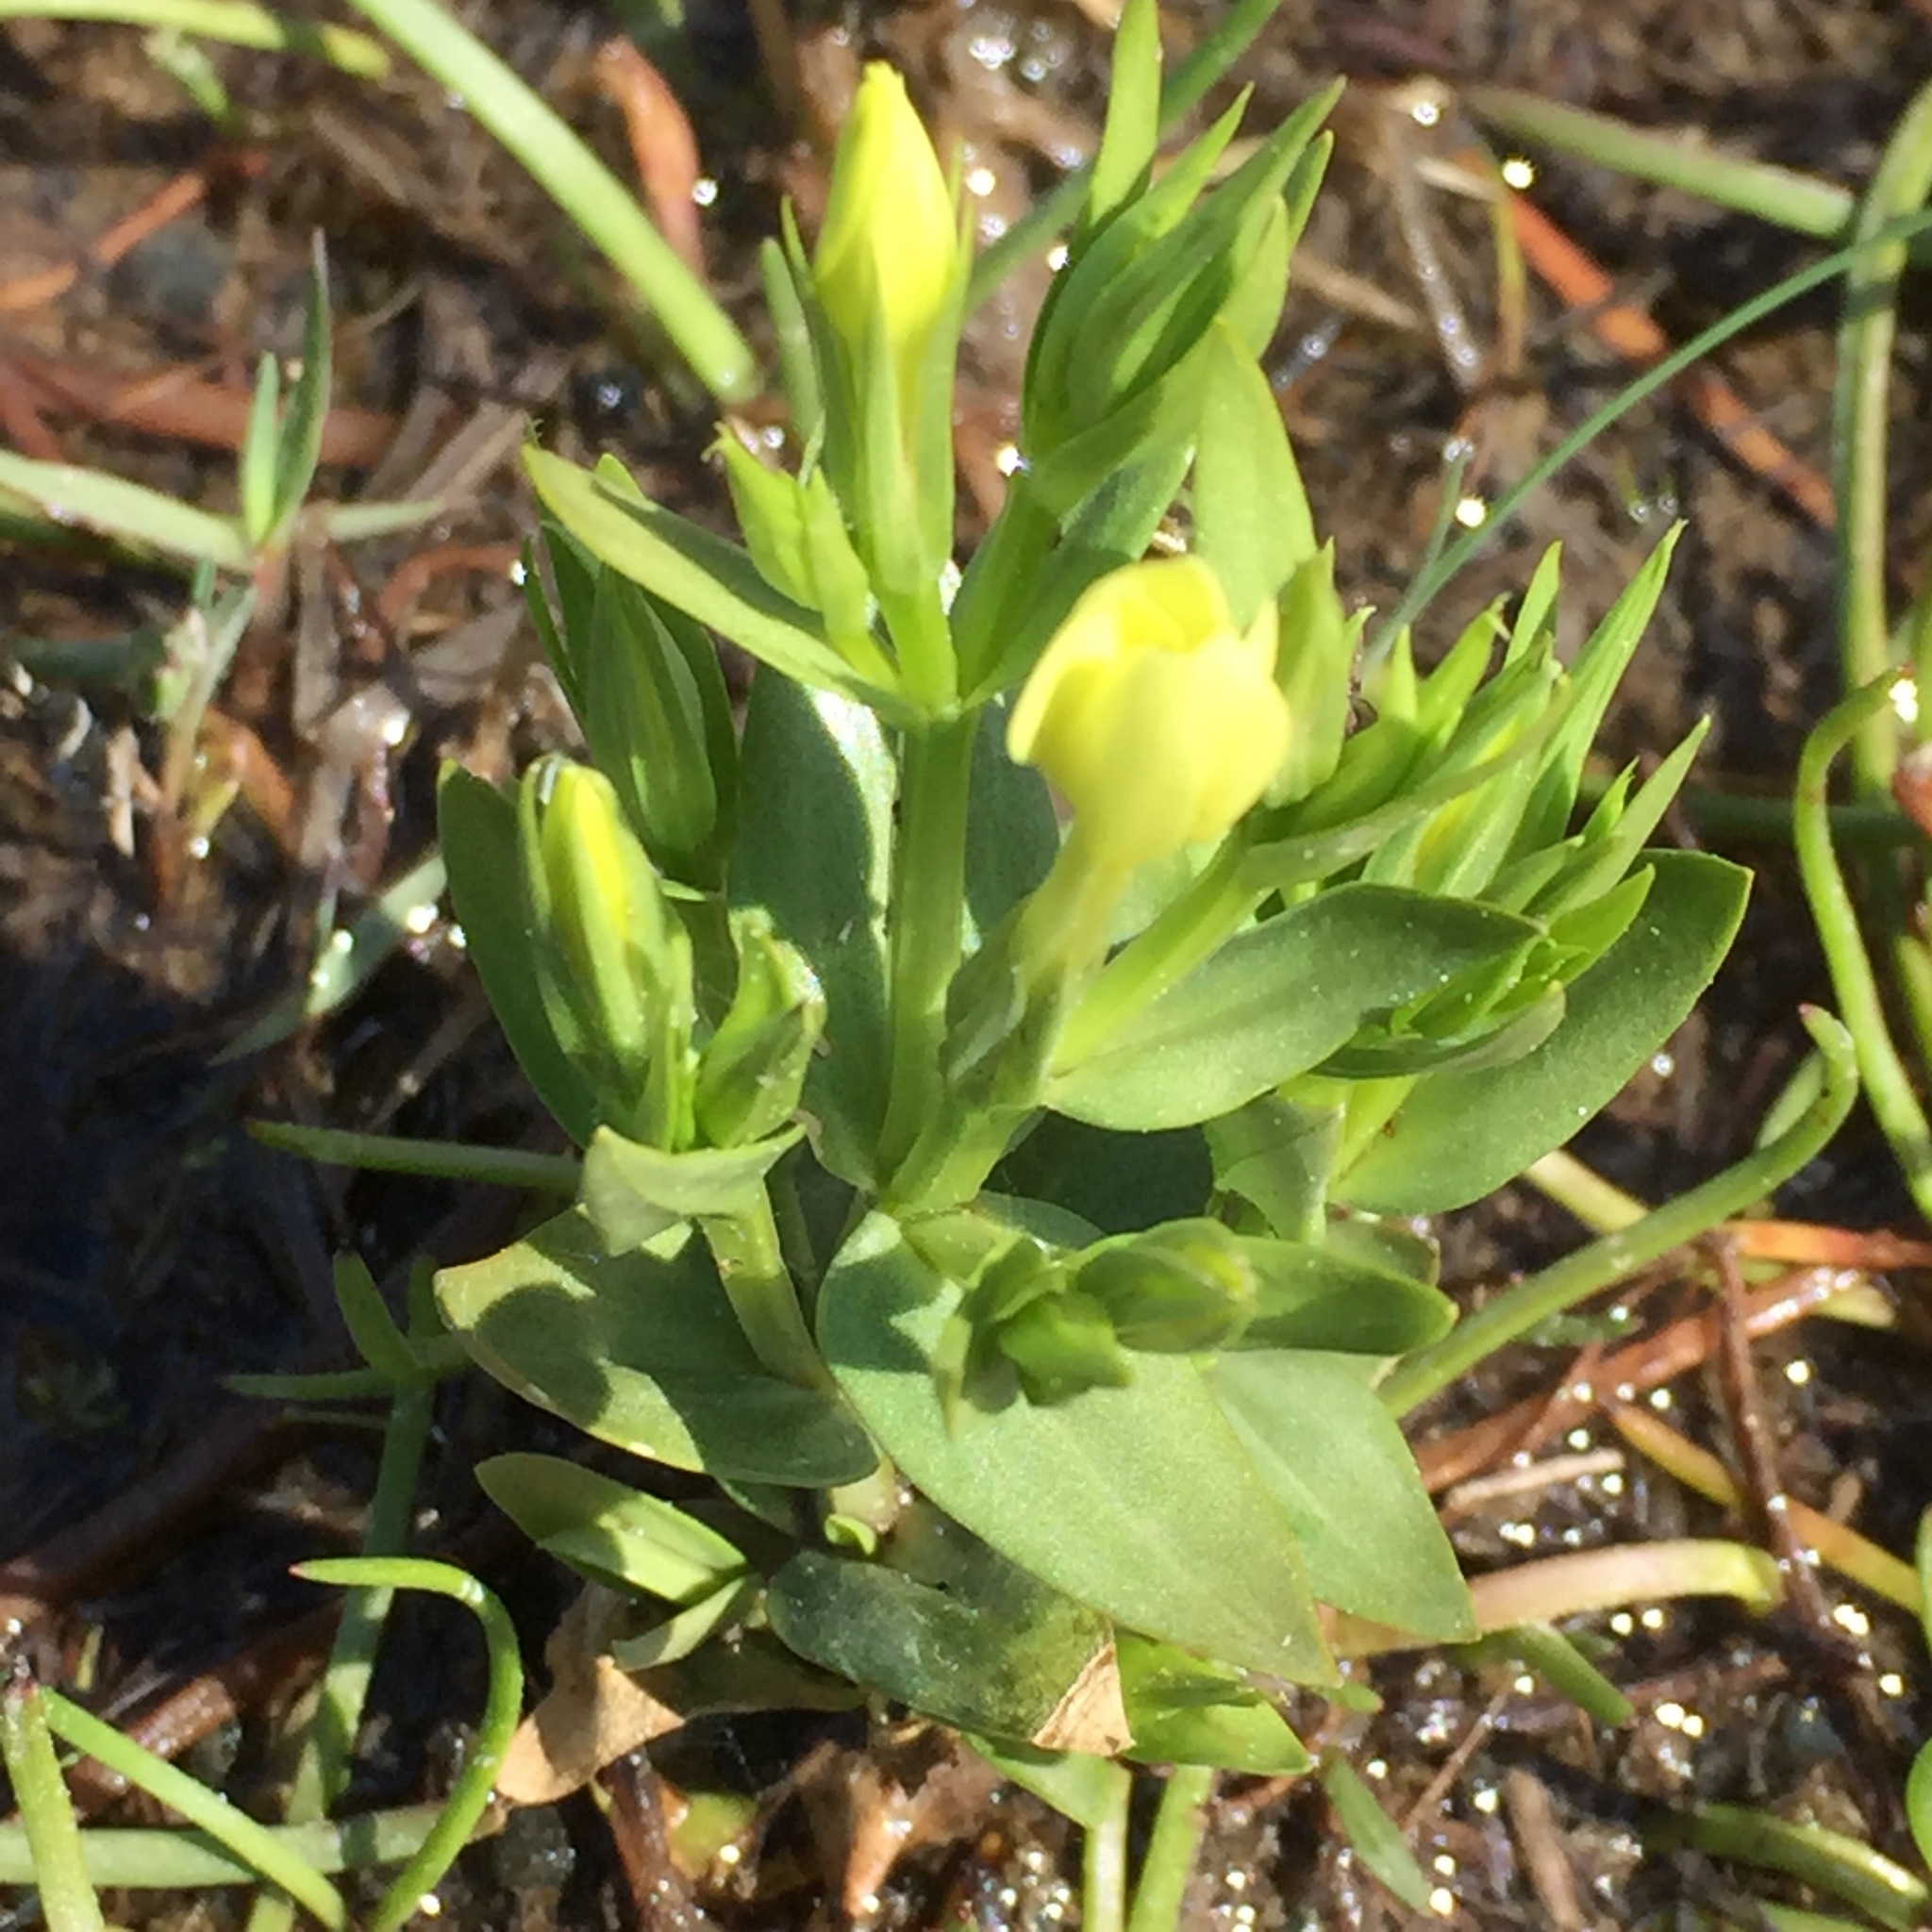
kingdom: Plantae
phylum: Tracheophyta
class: Magnoliopsida
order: Gentianales
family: Gentianaceae
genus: Centaurium
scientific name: Centaurium maritimum
